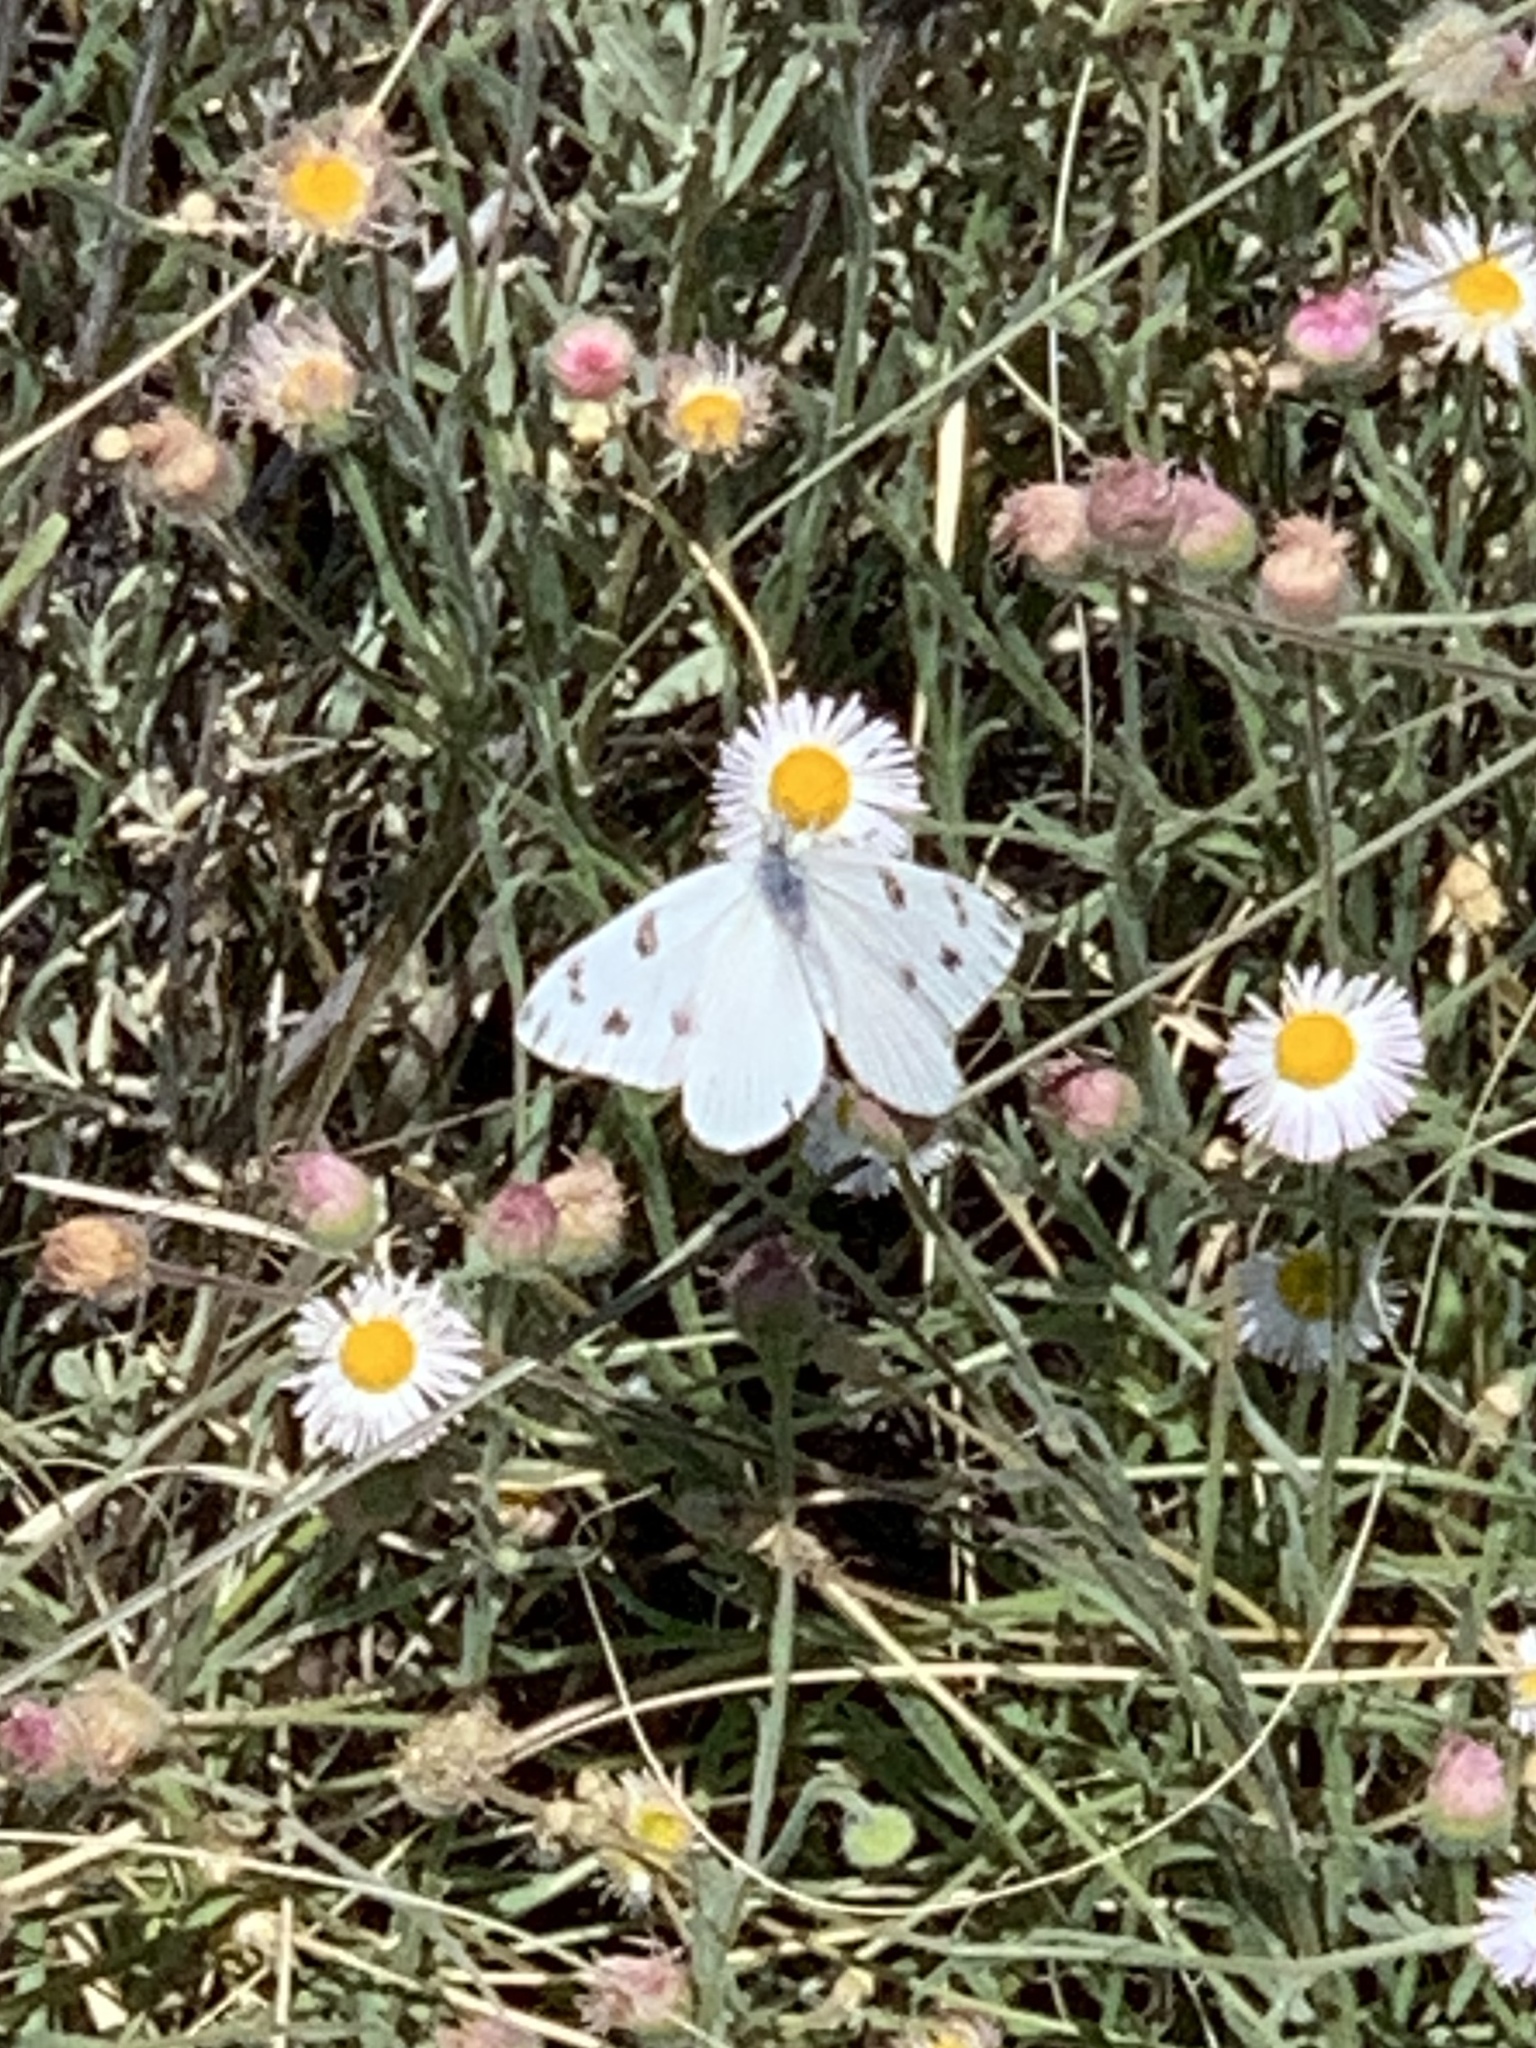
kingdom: Animalia
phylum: Arthropoda
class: Insecta
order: Lepidoptera
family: Pieridae
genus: Pontia
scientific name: Pontia protodice
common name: Checkered white
